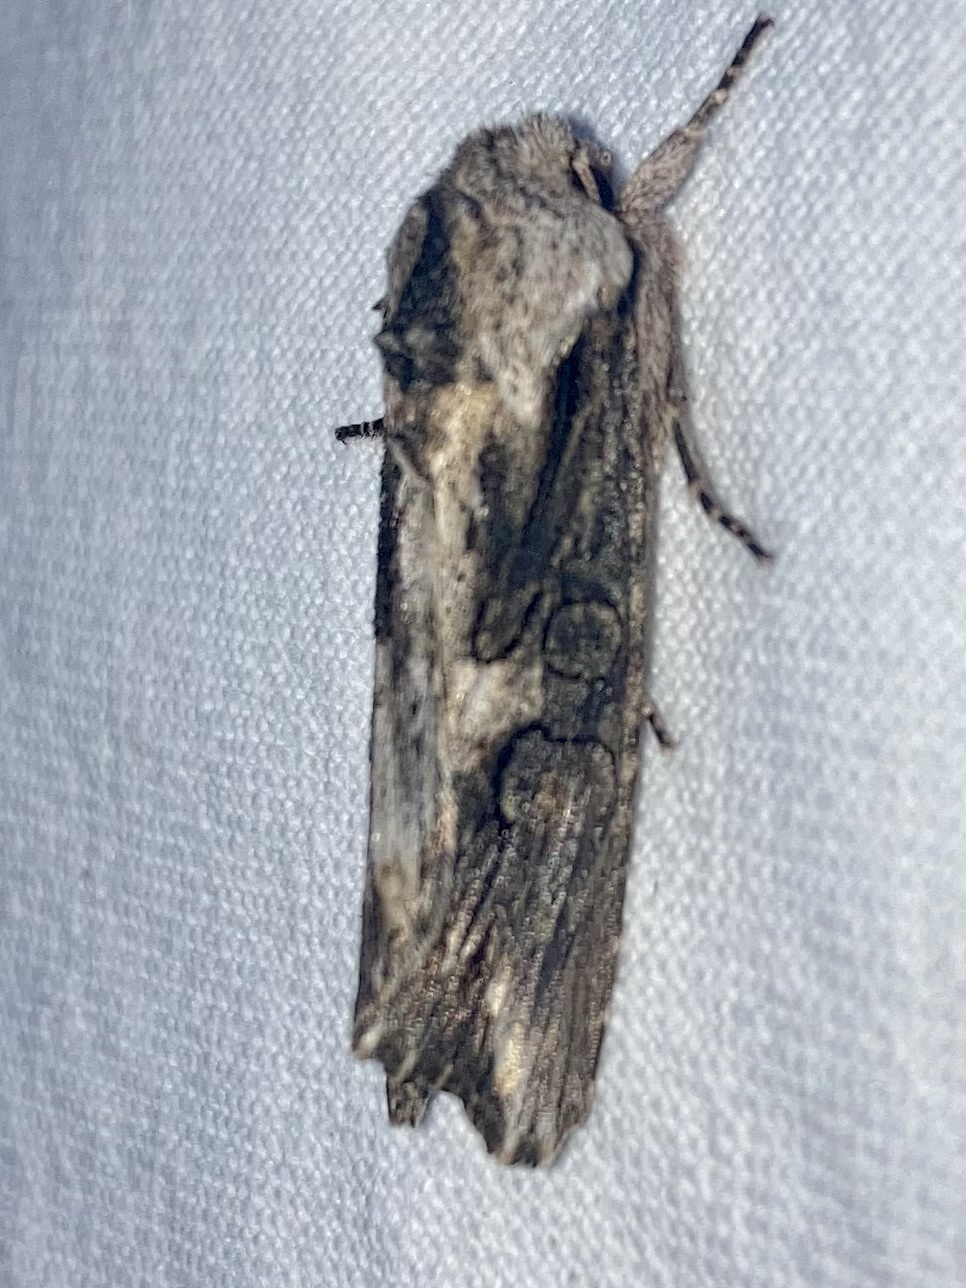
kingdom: Animalia
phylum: Arthropoda
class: Insecta
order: Lepidoptera
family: Noctuidae
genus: Egira
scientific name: Egira conspicillaris
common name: Silver cloud
